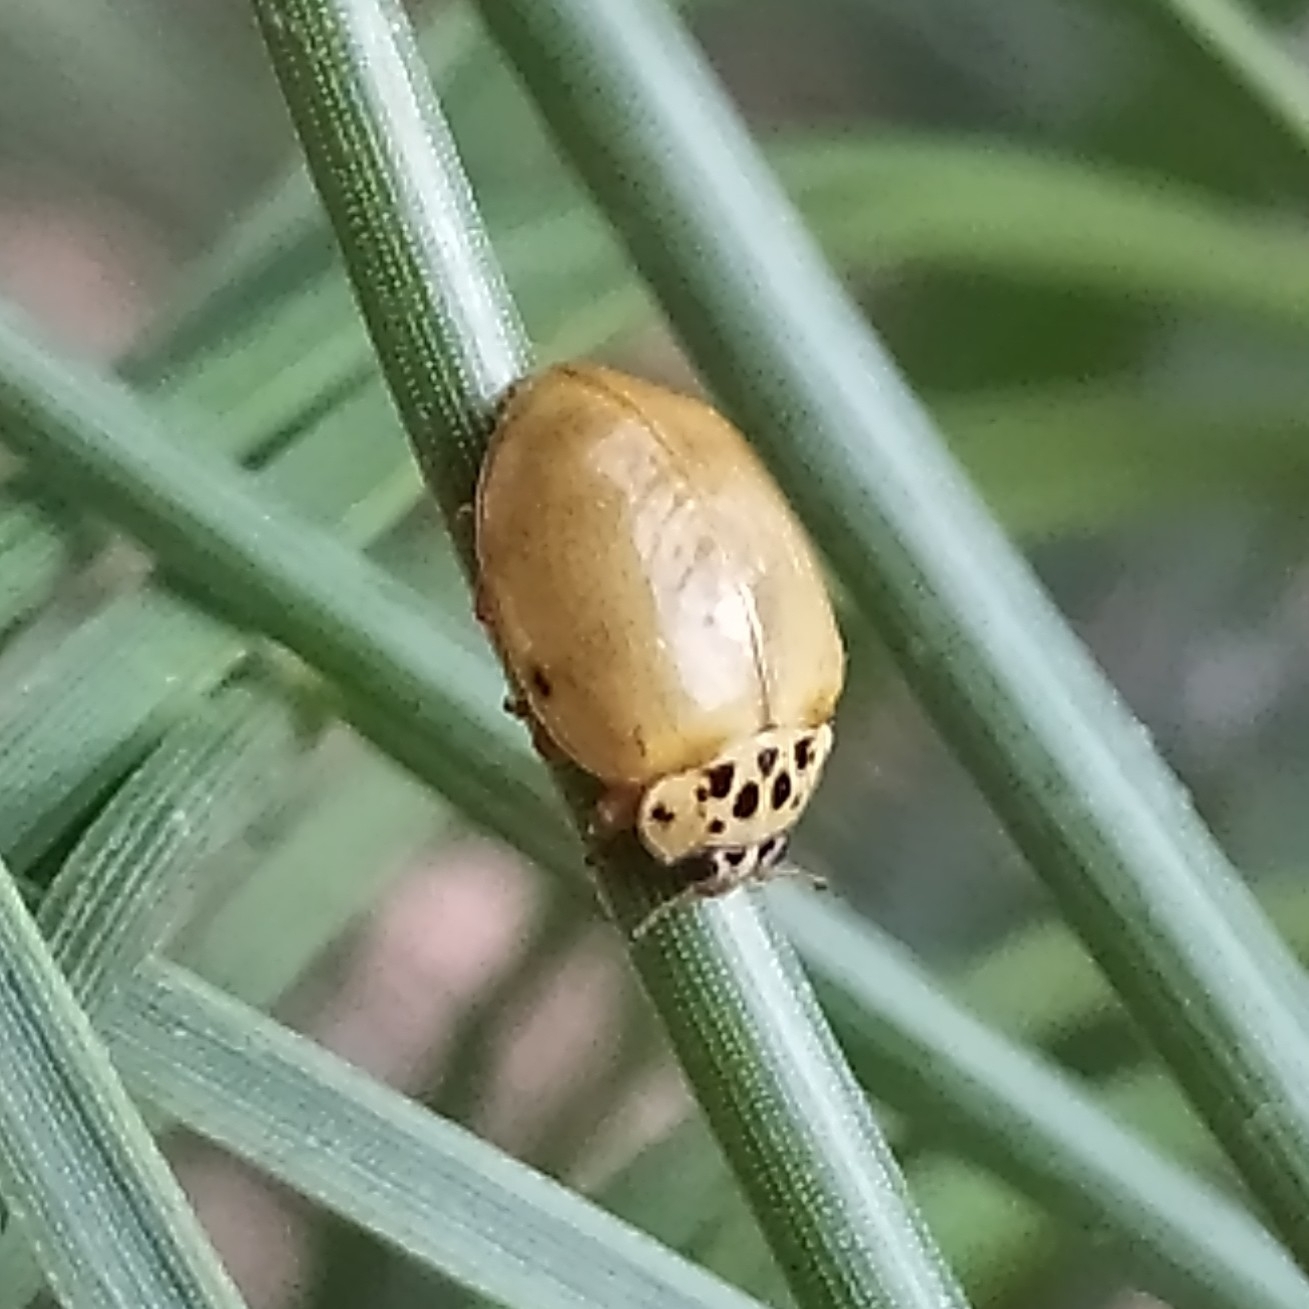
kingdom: Animalia
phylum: Arthropoda
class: Insecta
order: Coleoptera
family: Coccinellidae
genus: Harmonia
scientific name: Harmonia quadripunctata
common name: Cream-streaked ladybird
